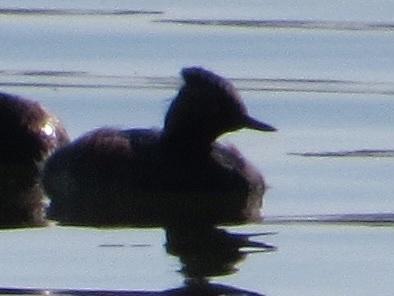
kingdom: Animalia
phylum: Chordata
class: Aves
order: Podicipediformes
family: Podicipedidae
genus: Podiceps
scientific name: Podiceps nigricollis
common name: Black-necked grebe
